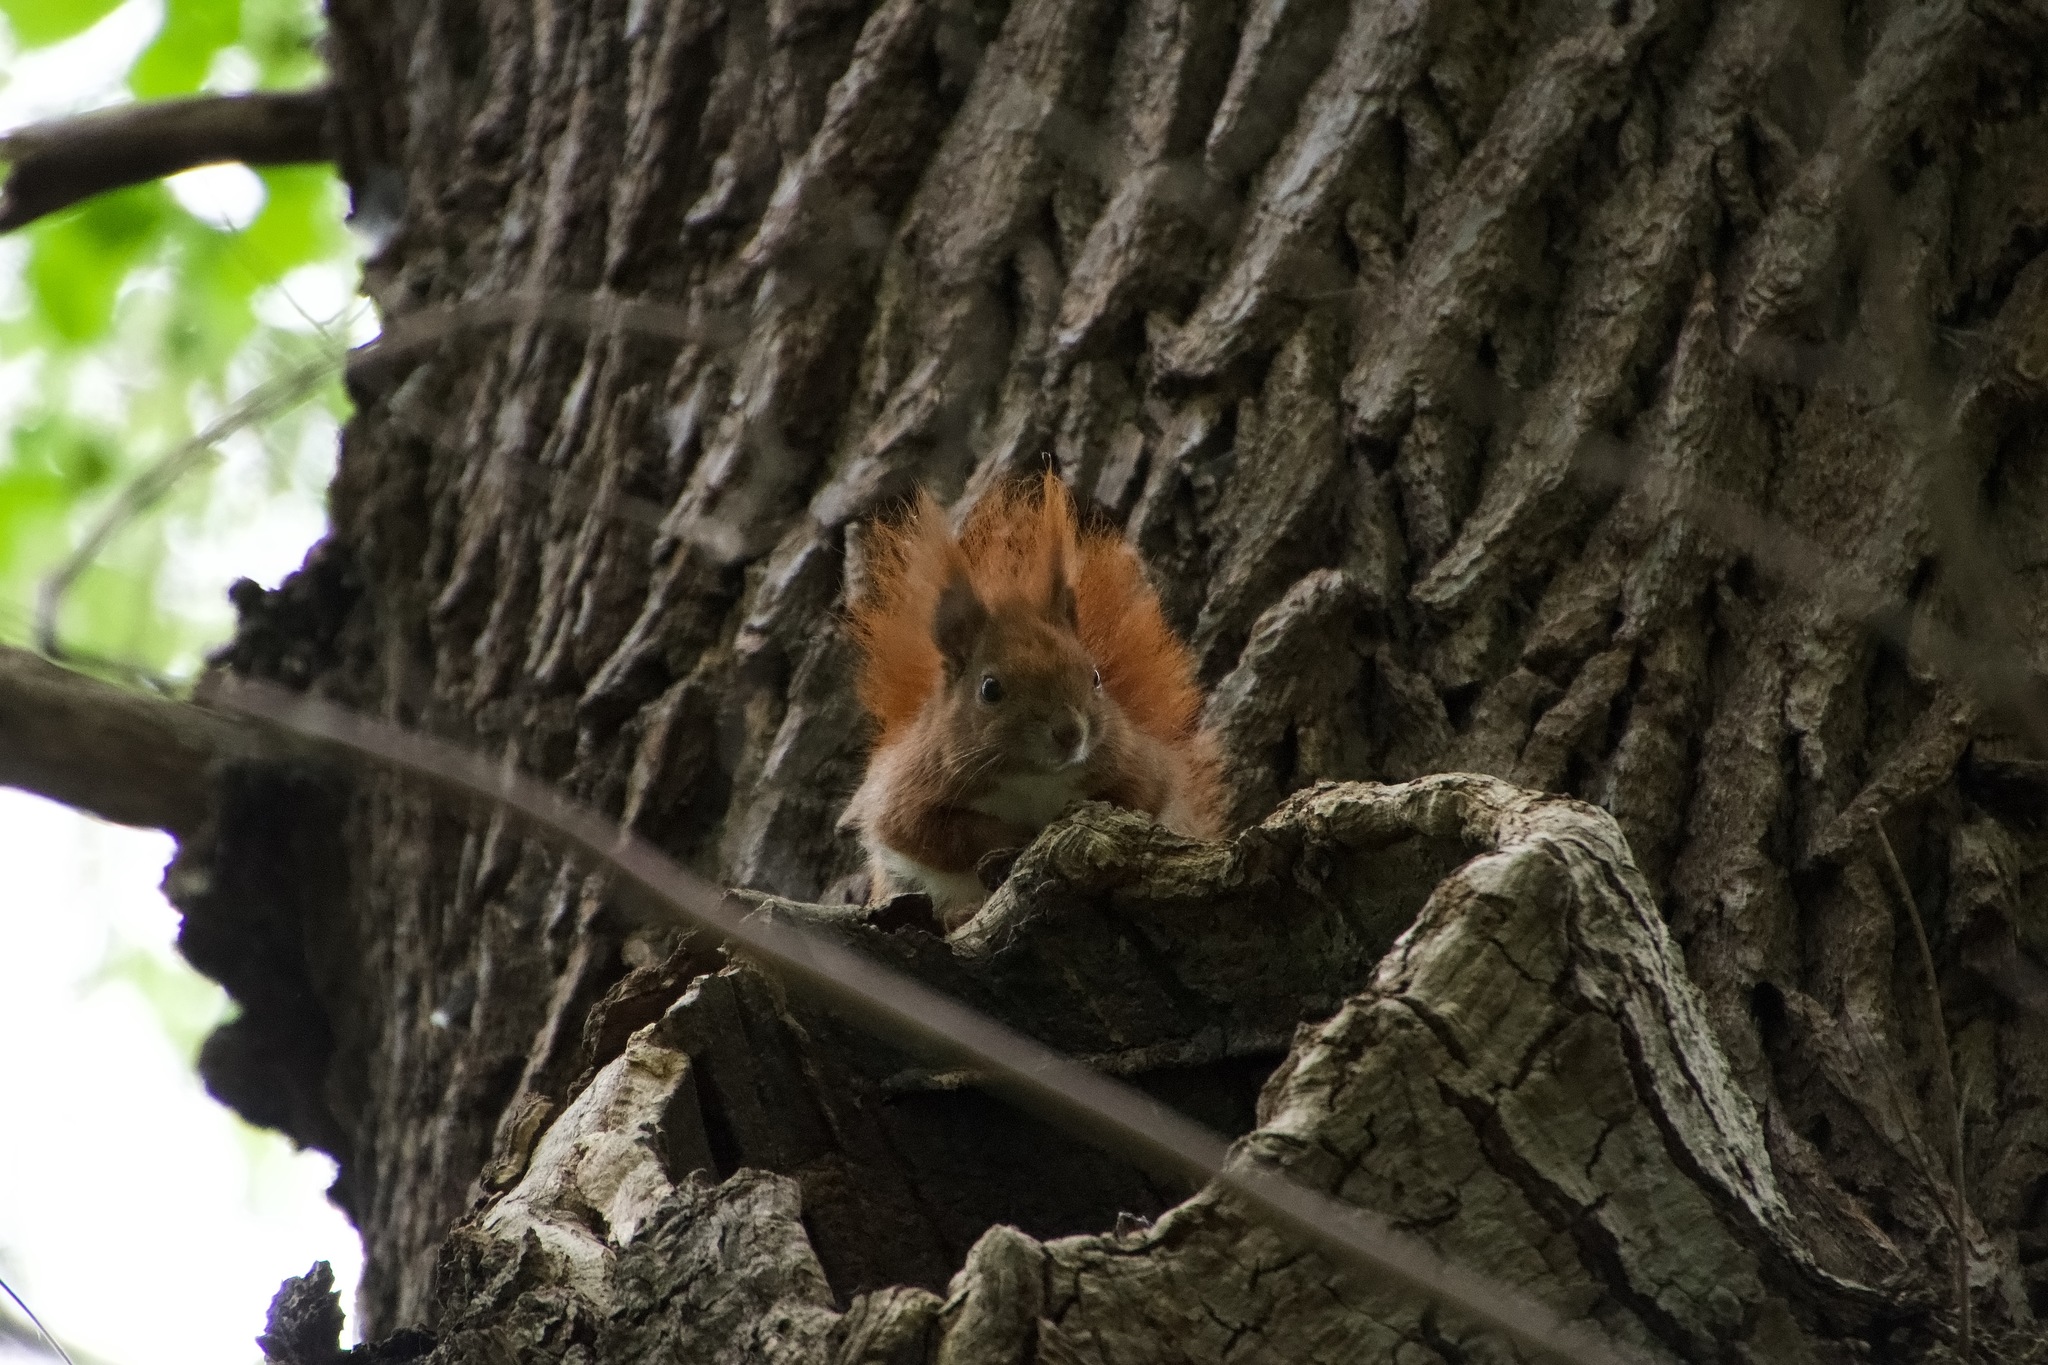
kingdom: Animalia
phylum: Chordata
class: Mammalia
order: Rodentia
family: Sciuridae
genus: Sciurus
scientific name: Sciurus vulgaris
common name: Eurasian red squirrel
